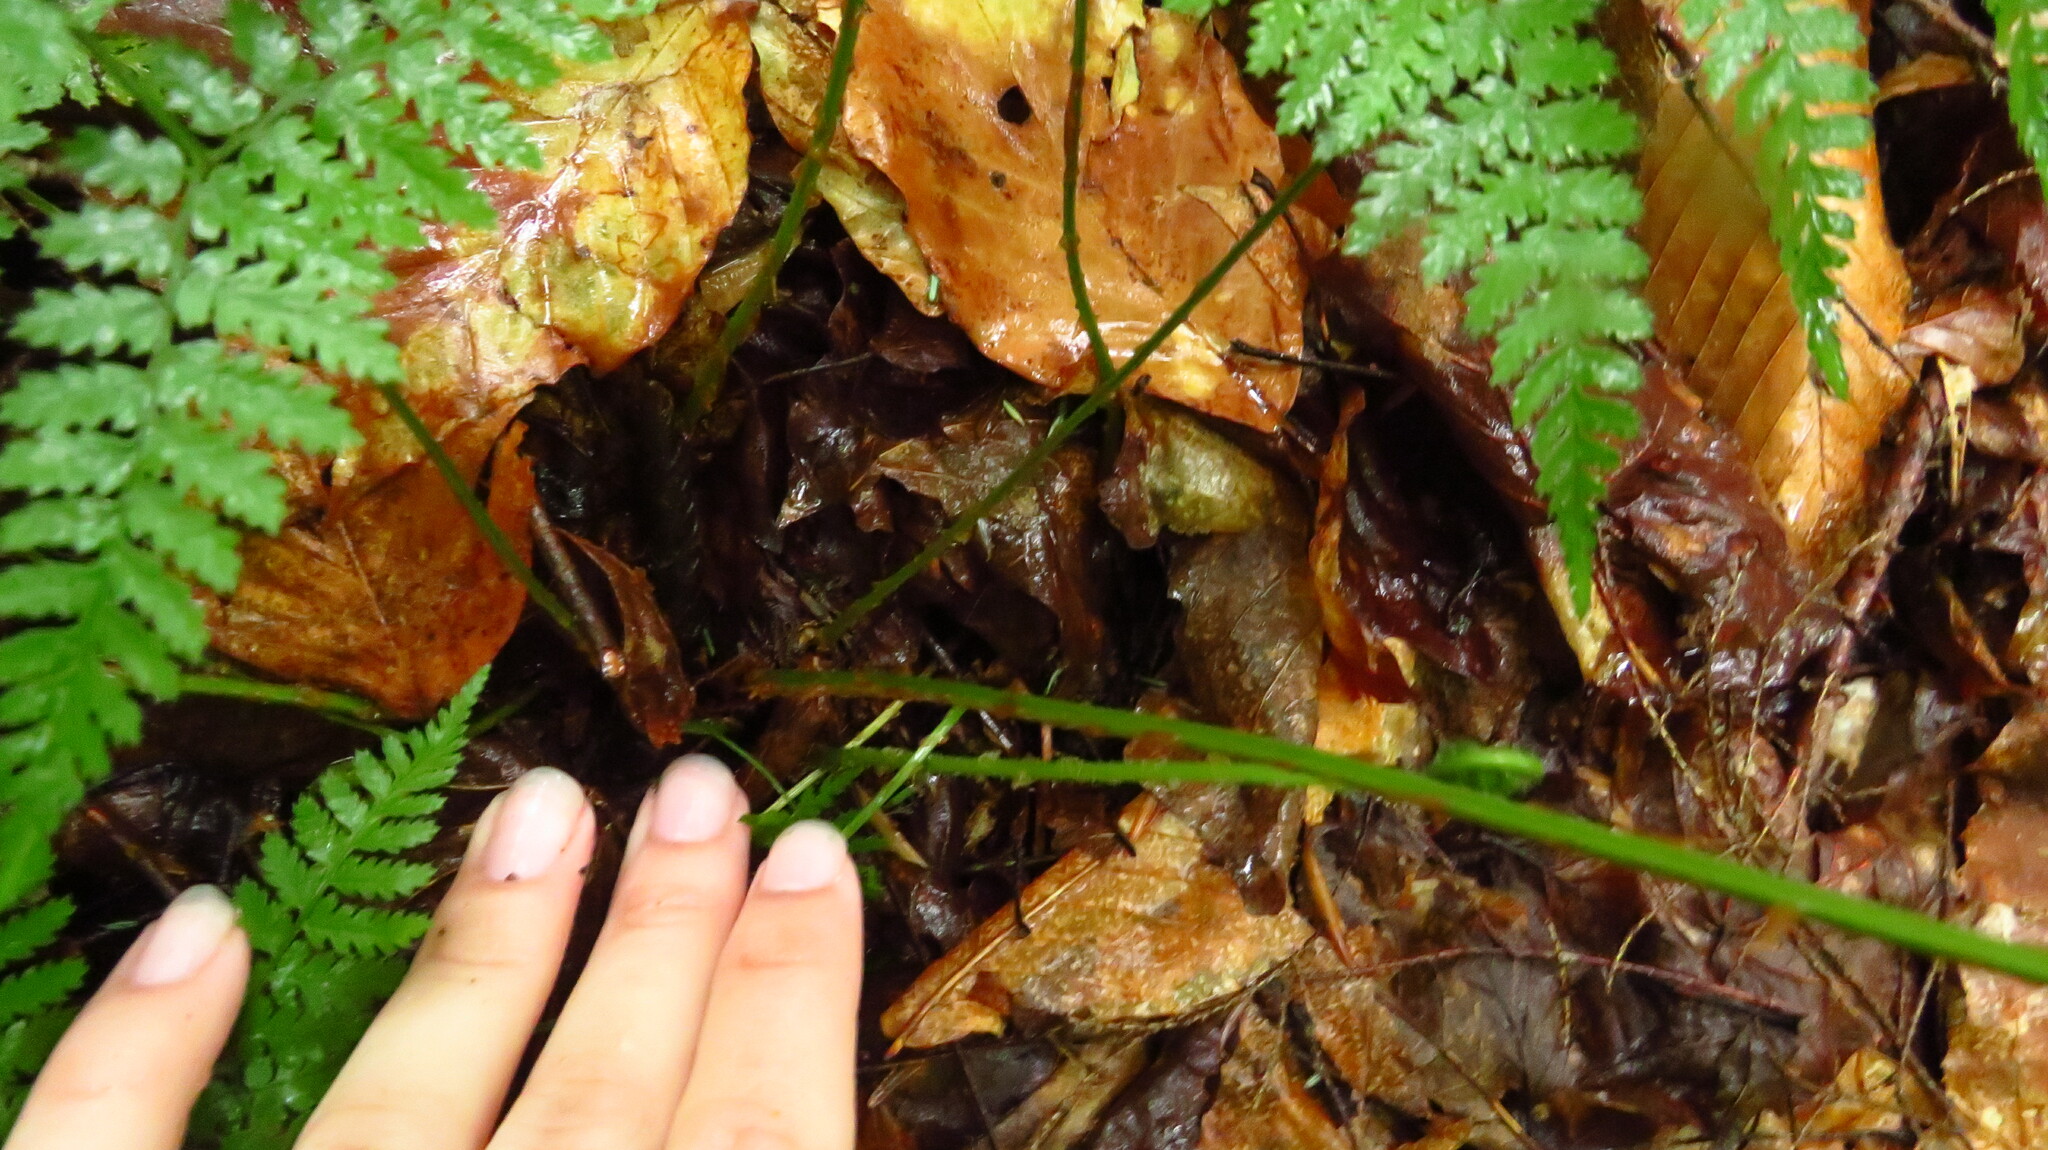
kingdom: Plantae
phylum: Tracheophyta
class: Polypodiopsida
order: Polypodiales
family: Dryopteridaceae
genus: Dryopteris
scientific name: Dryopteris intermedia
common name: Evergreen wood fern
